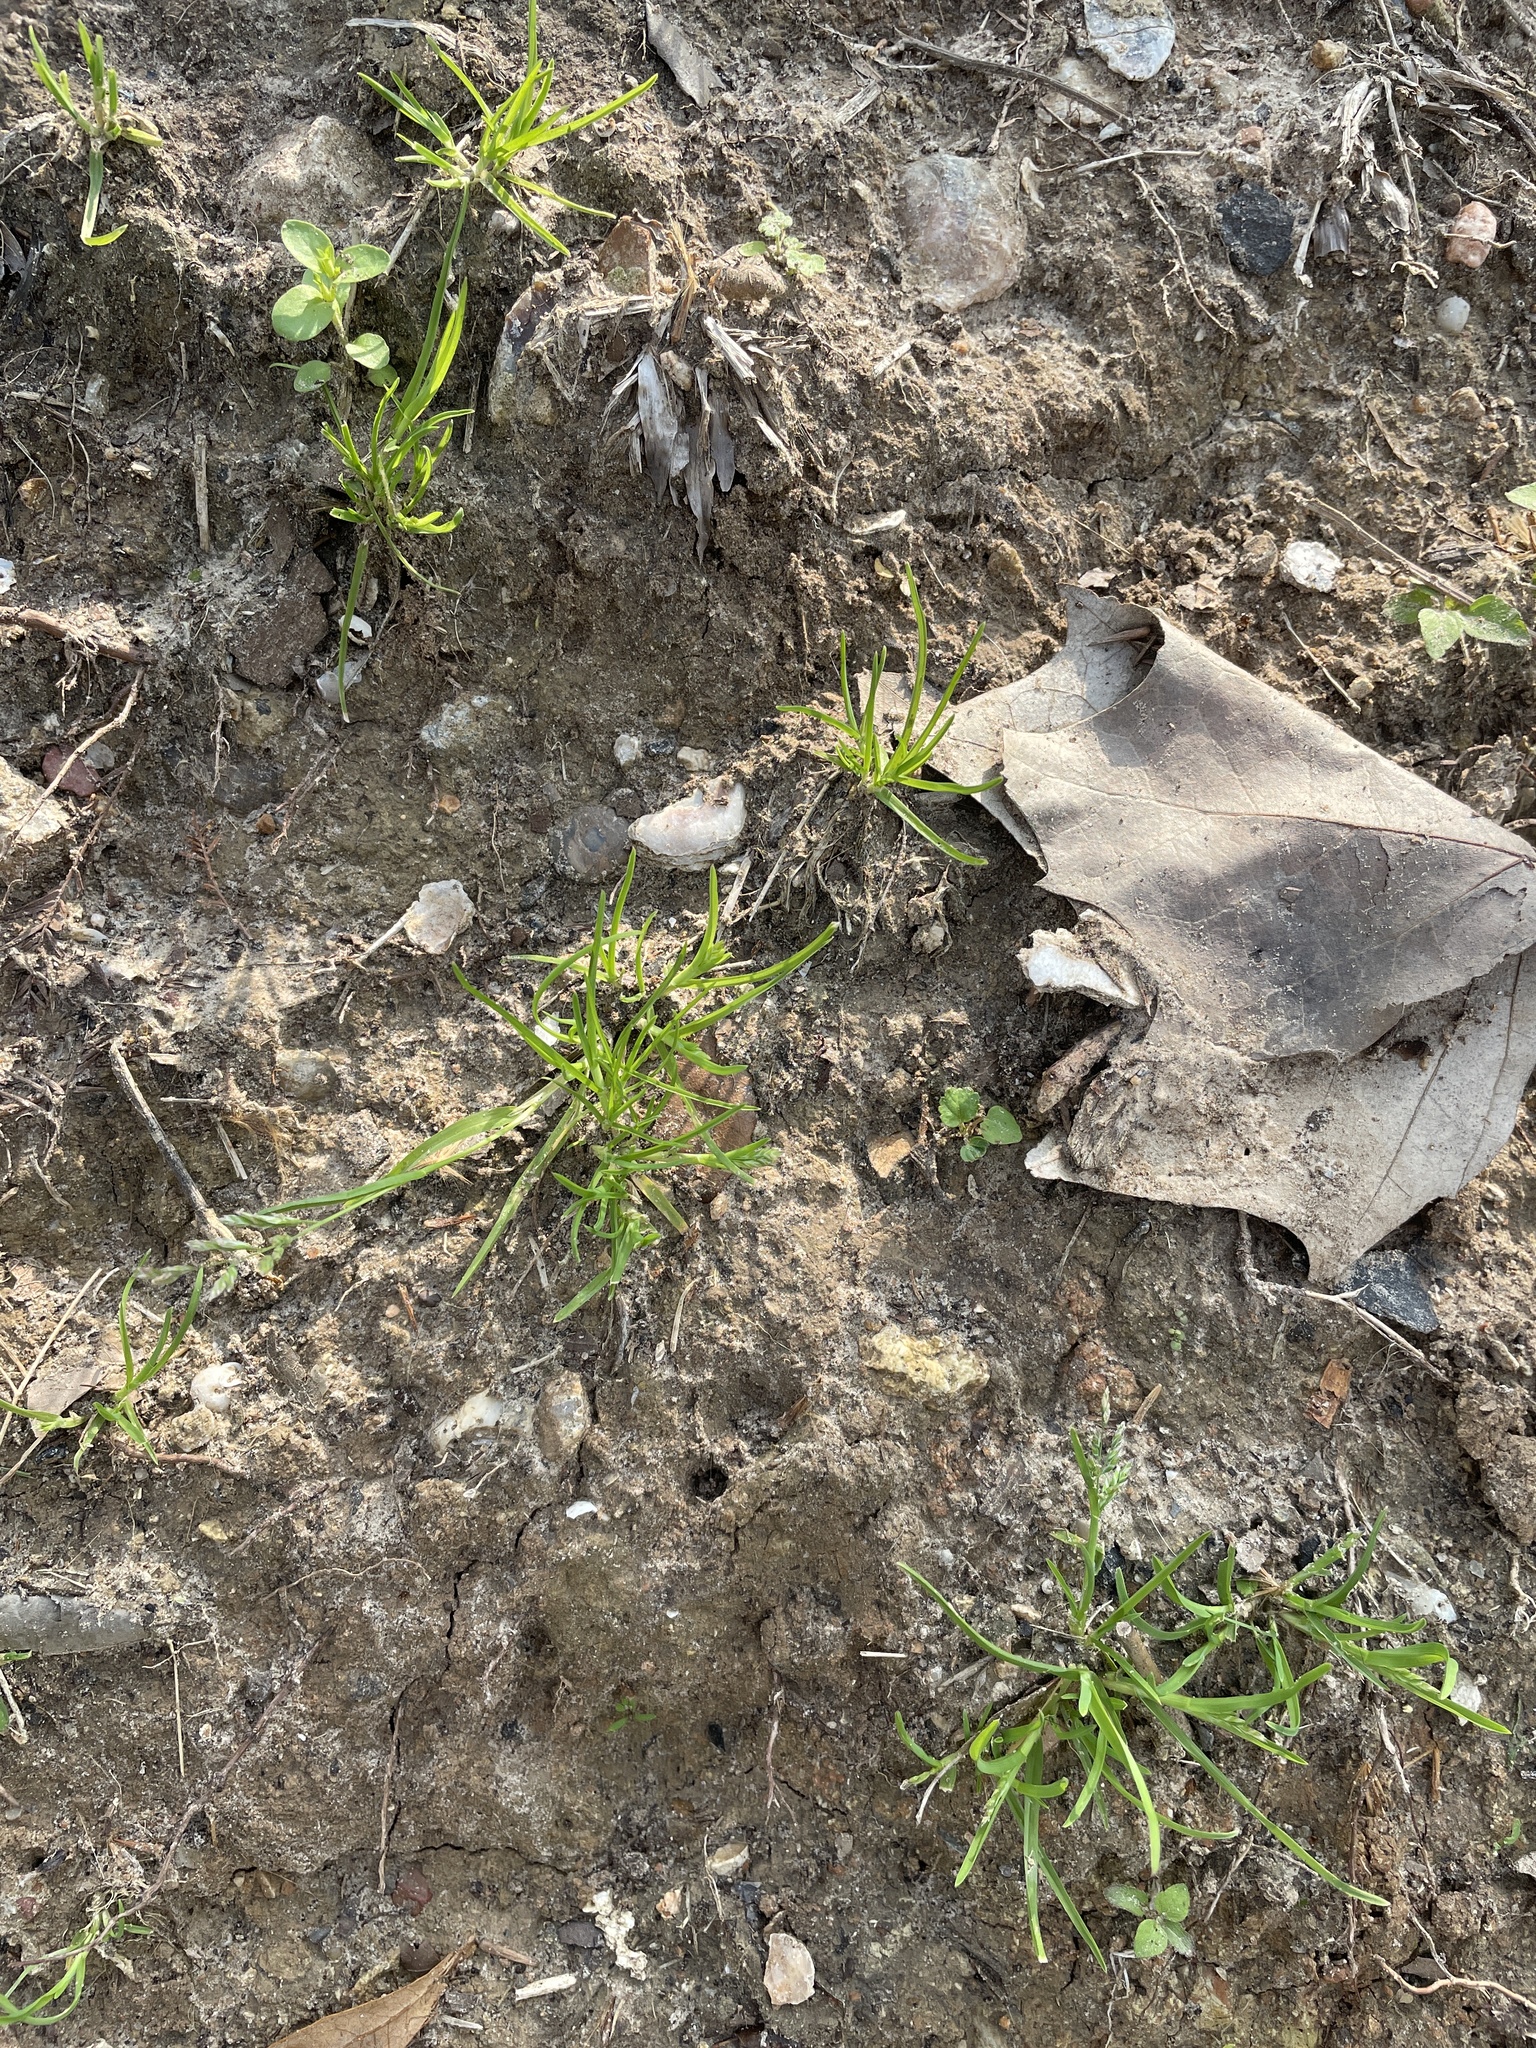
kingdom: Plantae
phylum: Tracheophyta
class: Liliopsida
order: Poales
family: Poaceae
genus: Poa
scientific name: Poa annua
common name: Annual bluegrass
